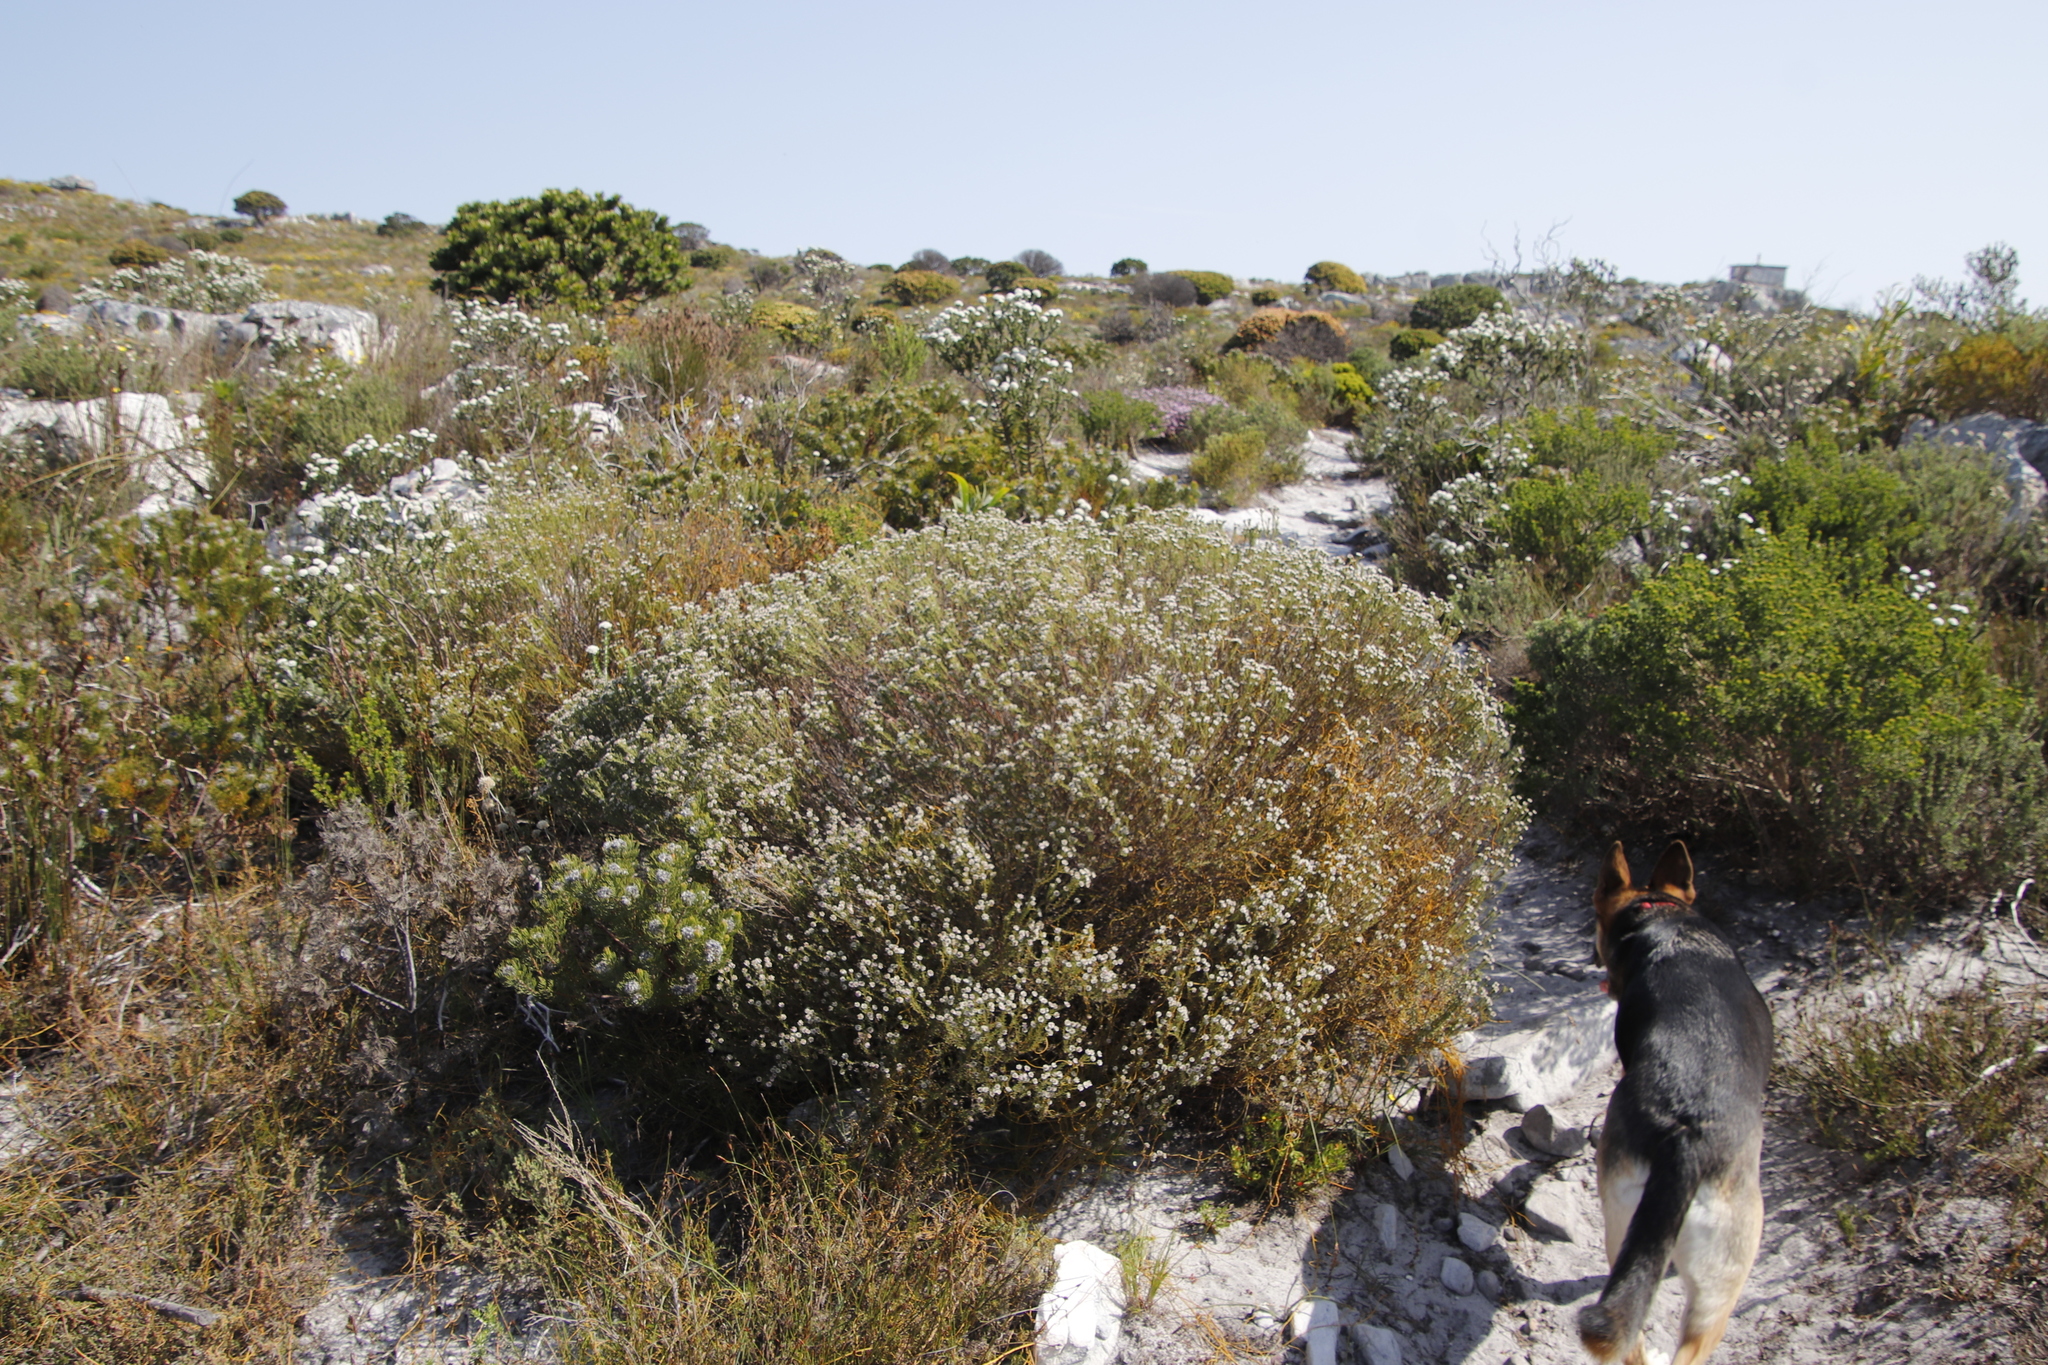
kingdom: Plantae
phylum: Tracheophyta
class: Magnoliopsida
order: Bruniales
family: Bruniaceae
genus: Staavia
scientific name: Staavia radiata
